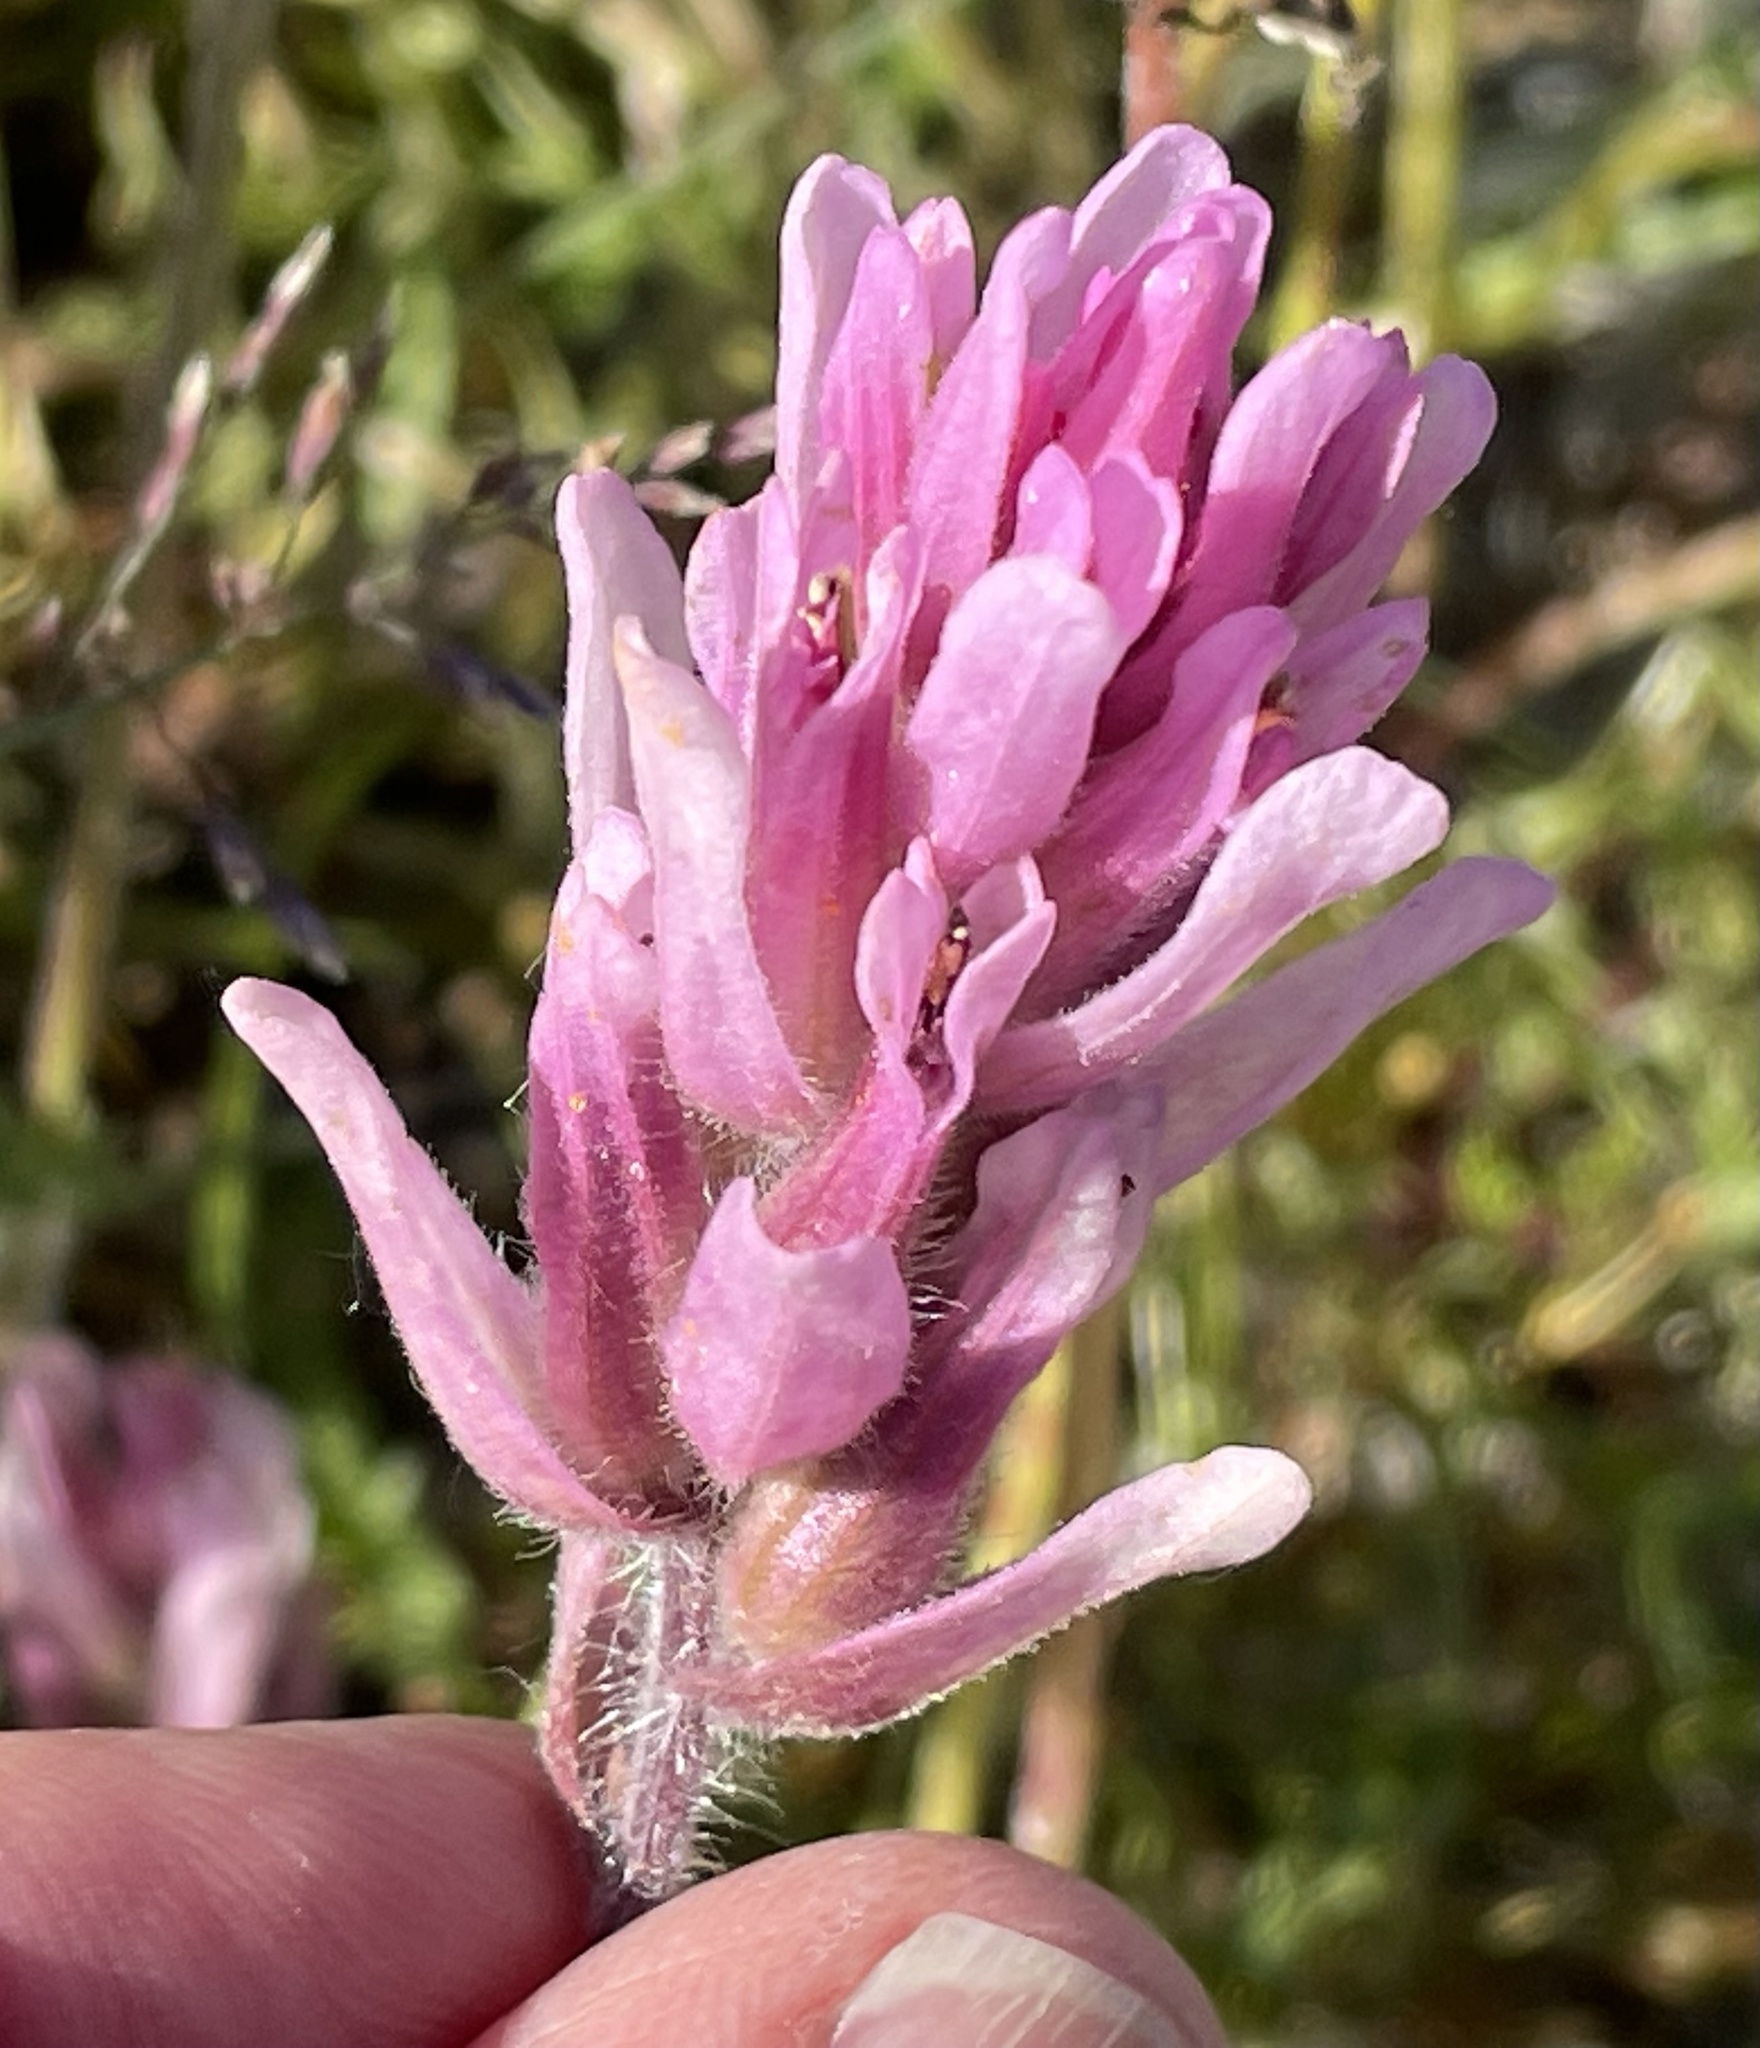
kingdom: Plantae
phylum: Tracheophyta
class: Magnoliopsida
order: Lamiales
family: Orobanchaceae
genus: Castilleja
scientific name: Castilleja raupii
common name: Raup's paintbrush
